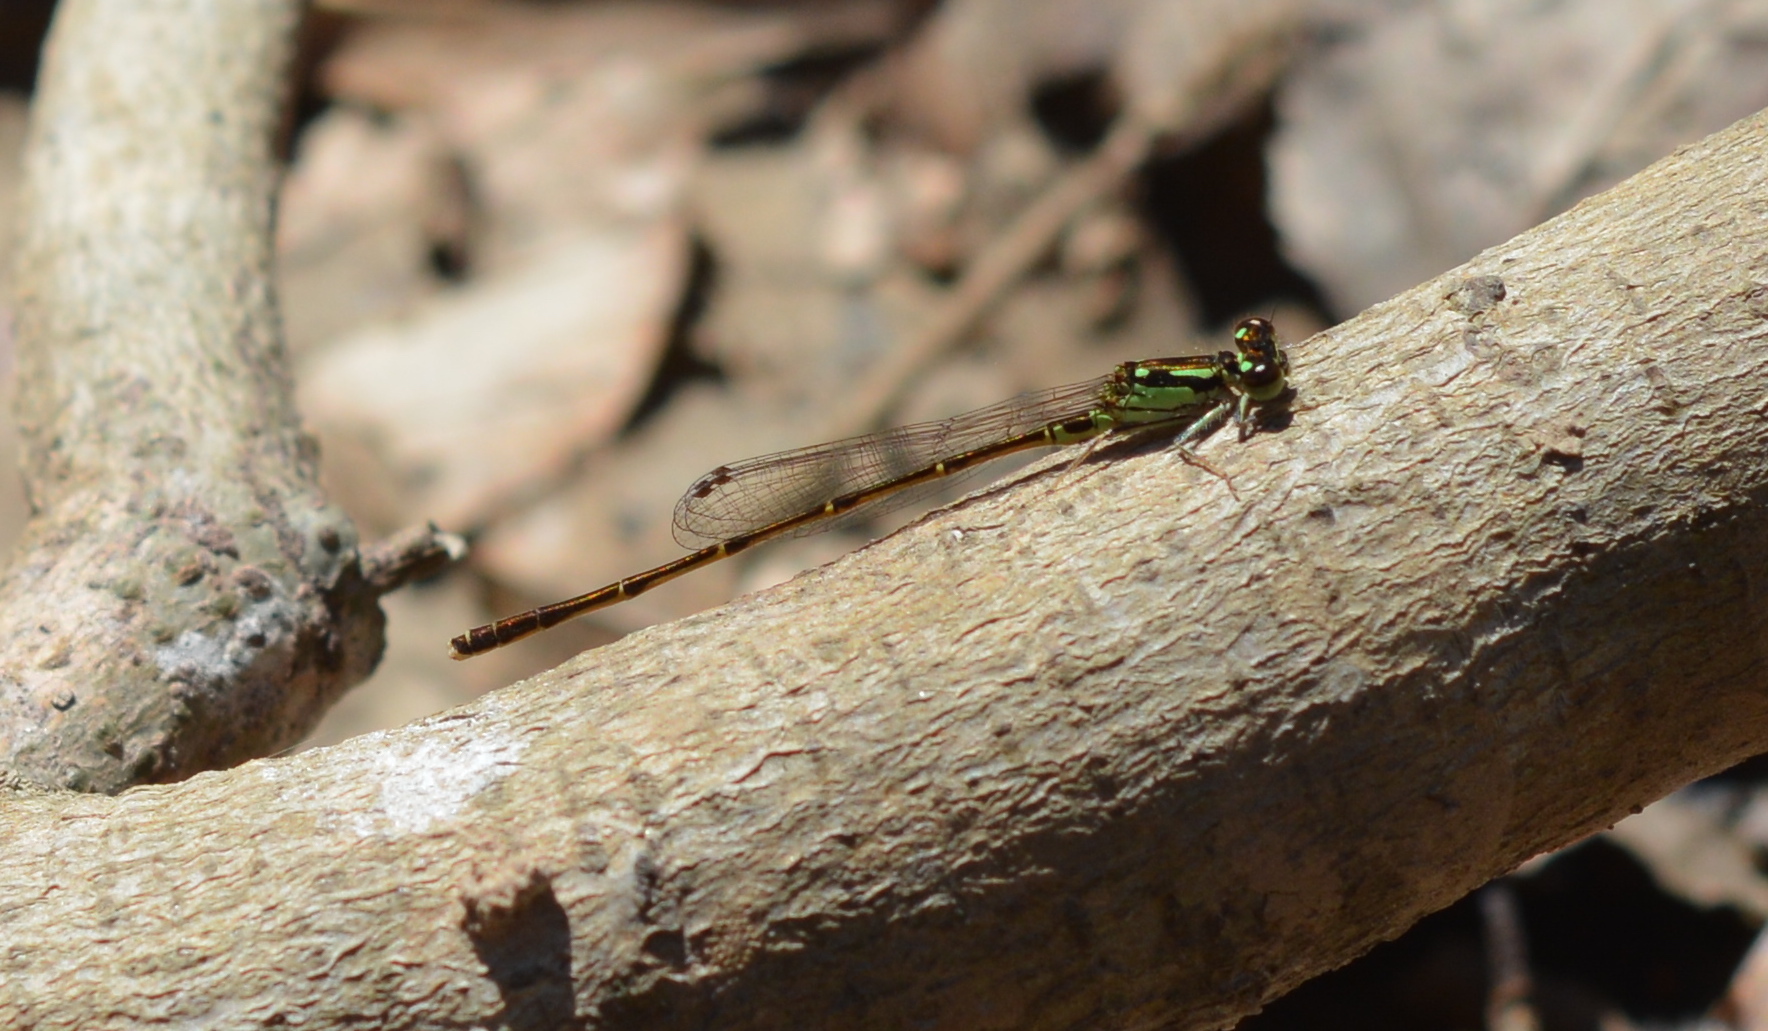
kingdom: Animalia
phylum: Arthropoda
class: Insecta
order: Odonata
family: Coenagrionidae
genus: Ischnura
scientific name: Ischnura posita
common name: Fragile forktail
